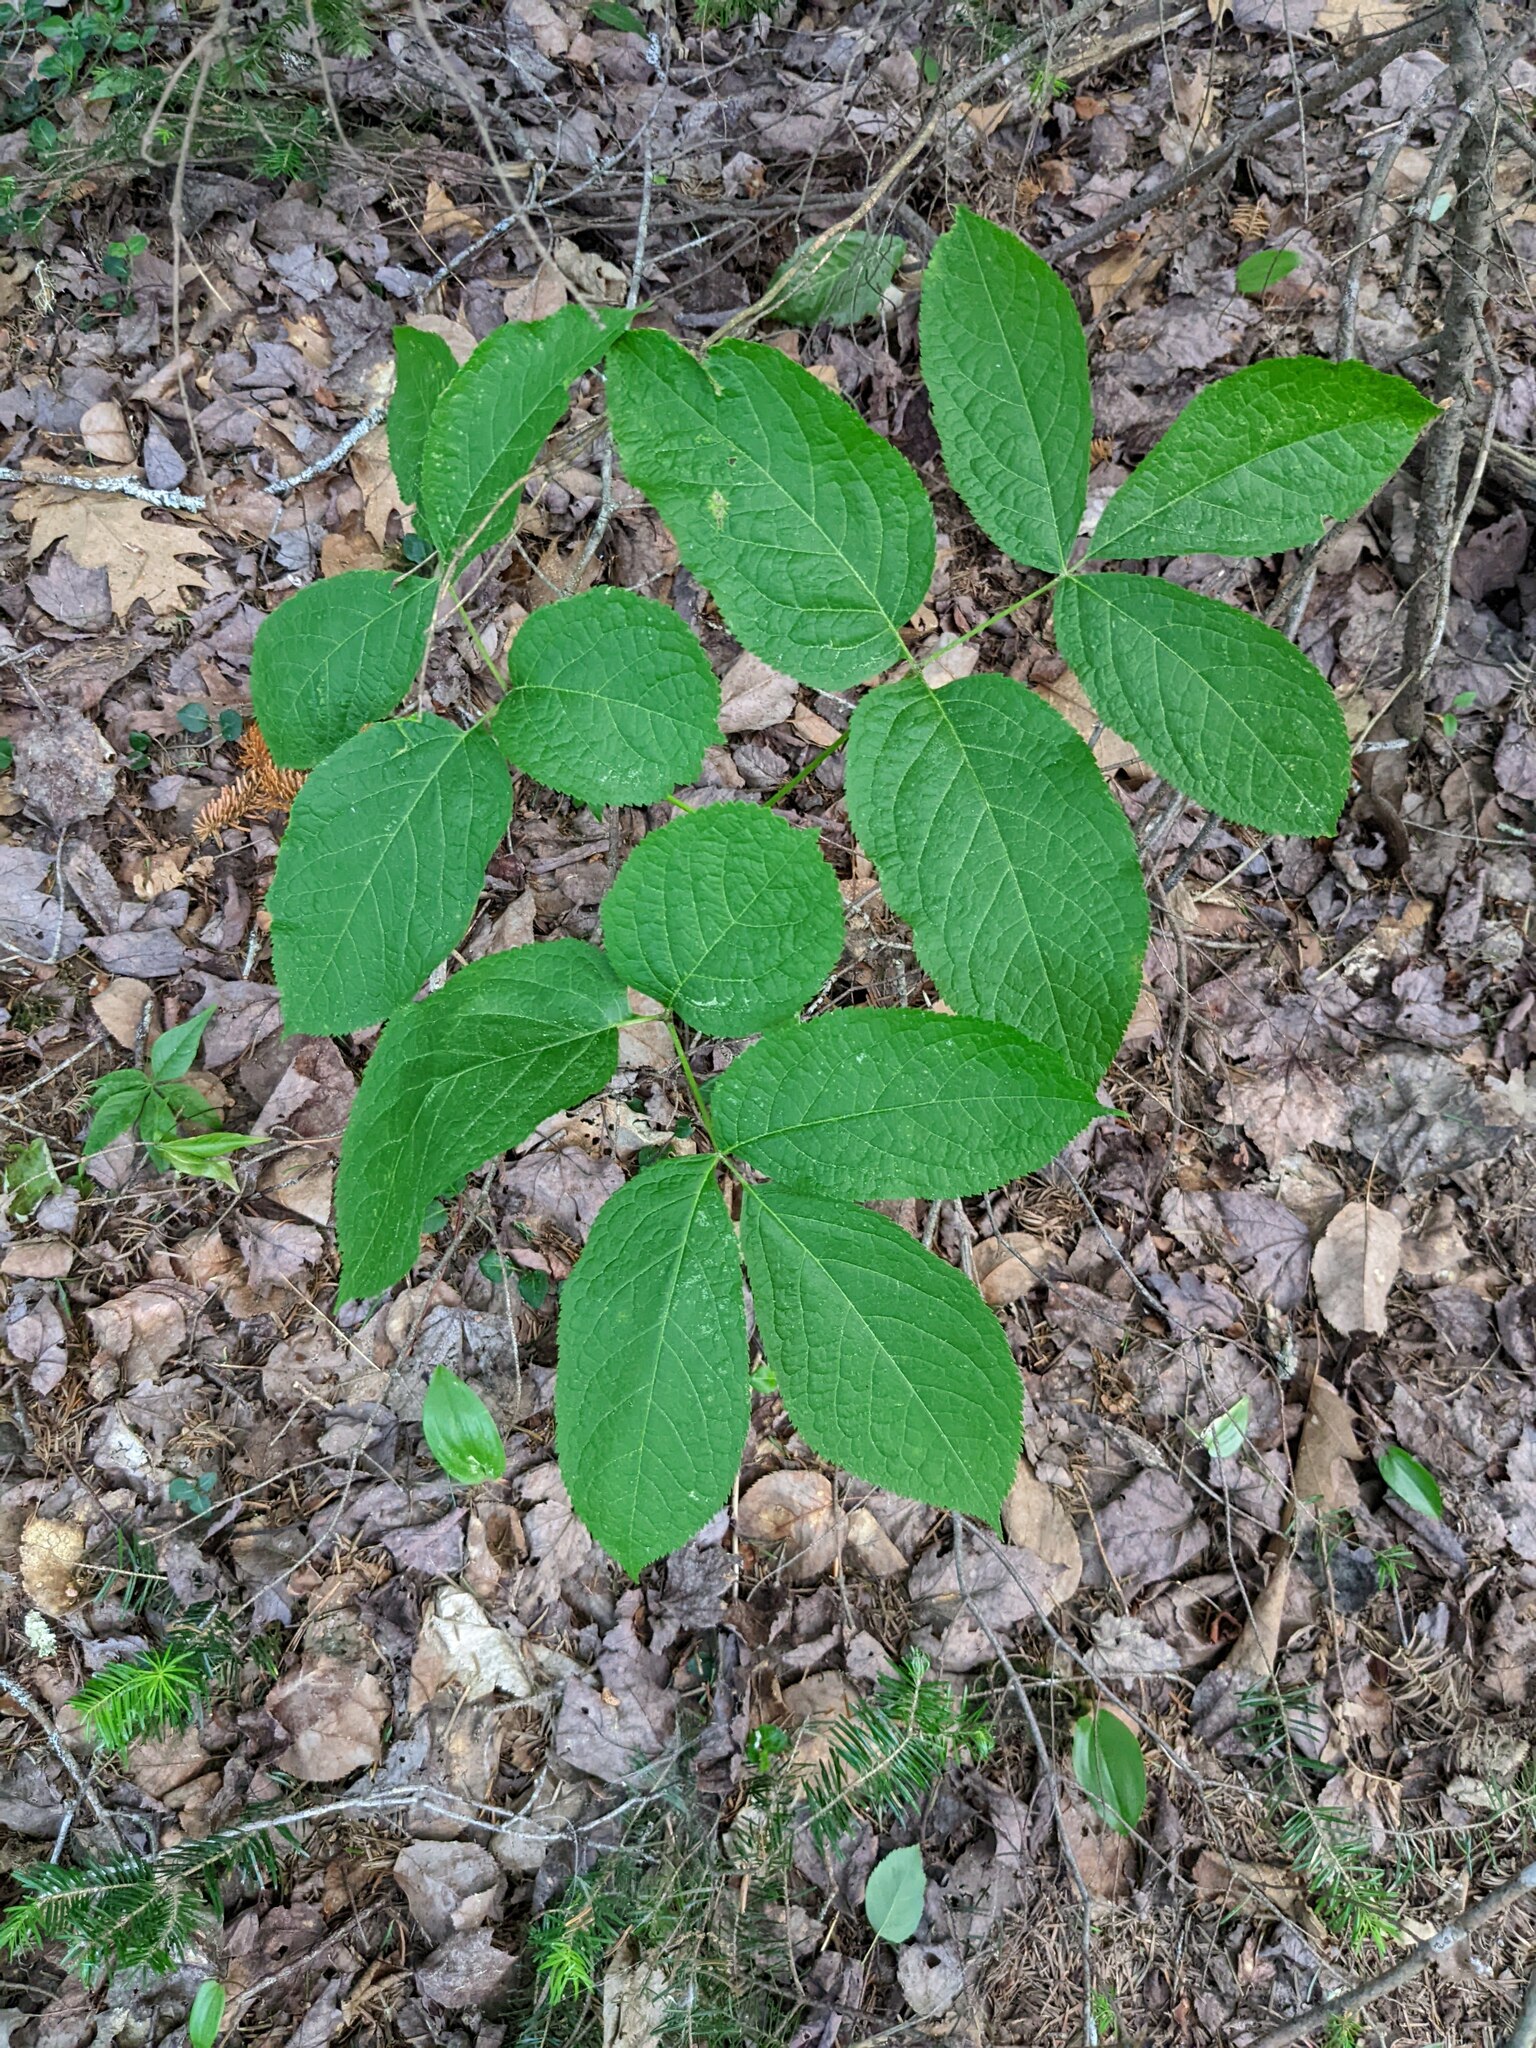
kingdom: Plantae
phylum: Tracheophyta
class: Magnoliopsida
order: Apiales
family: Araliaceae
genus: Aralia
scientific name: Aralia nudicaulis
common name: Wild sarsaparilla
